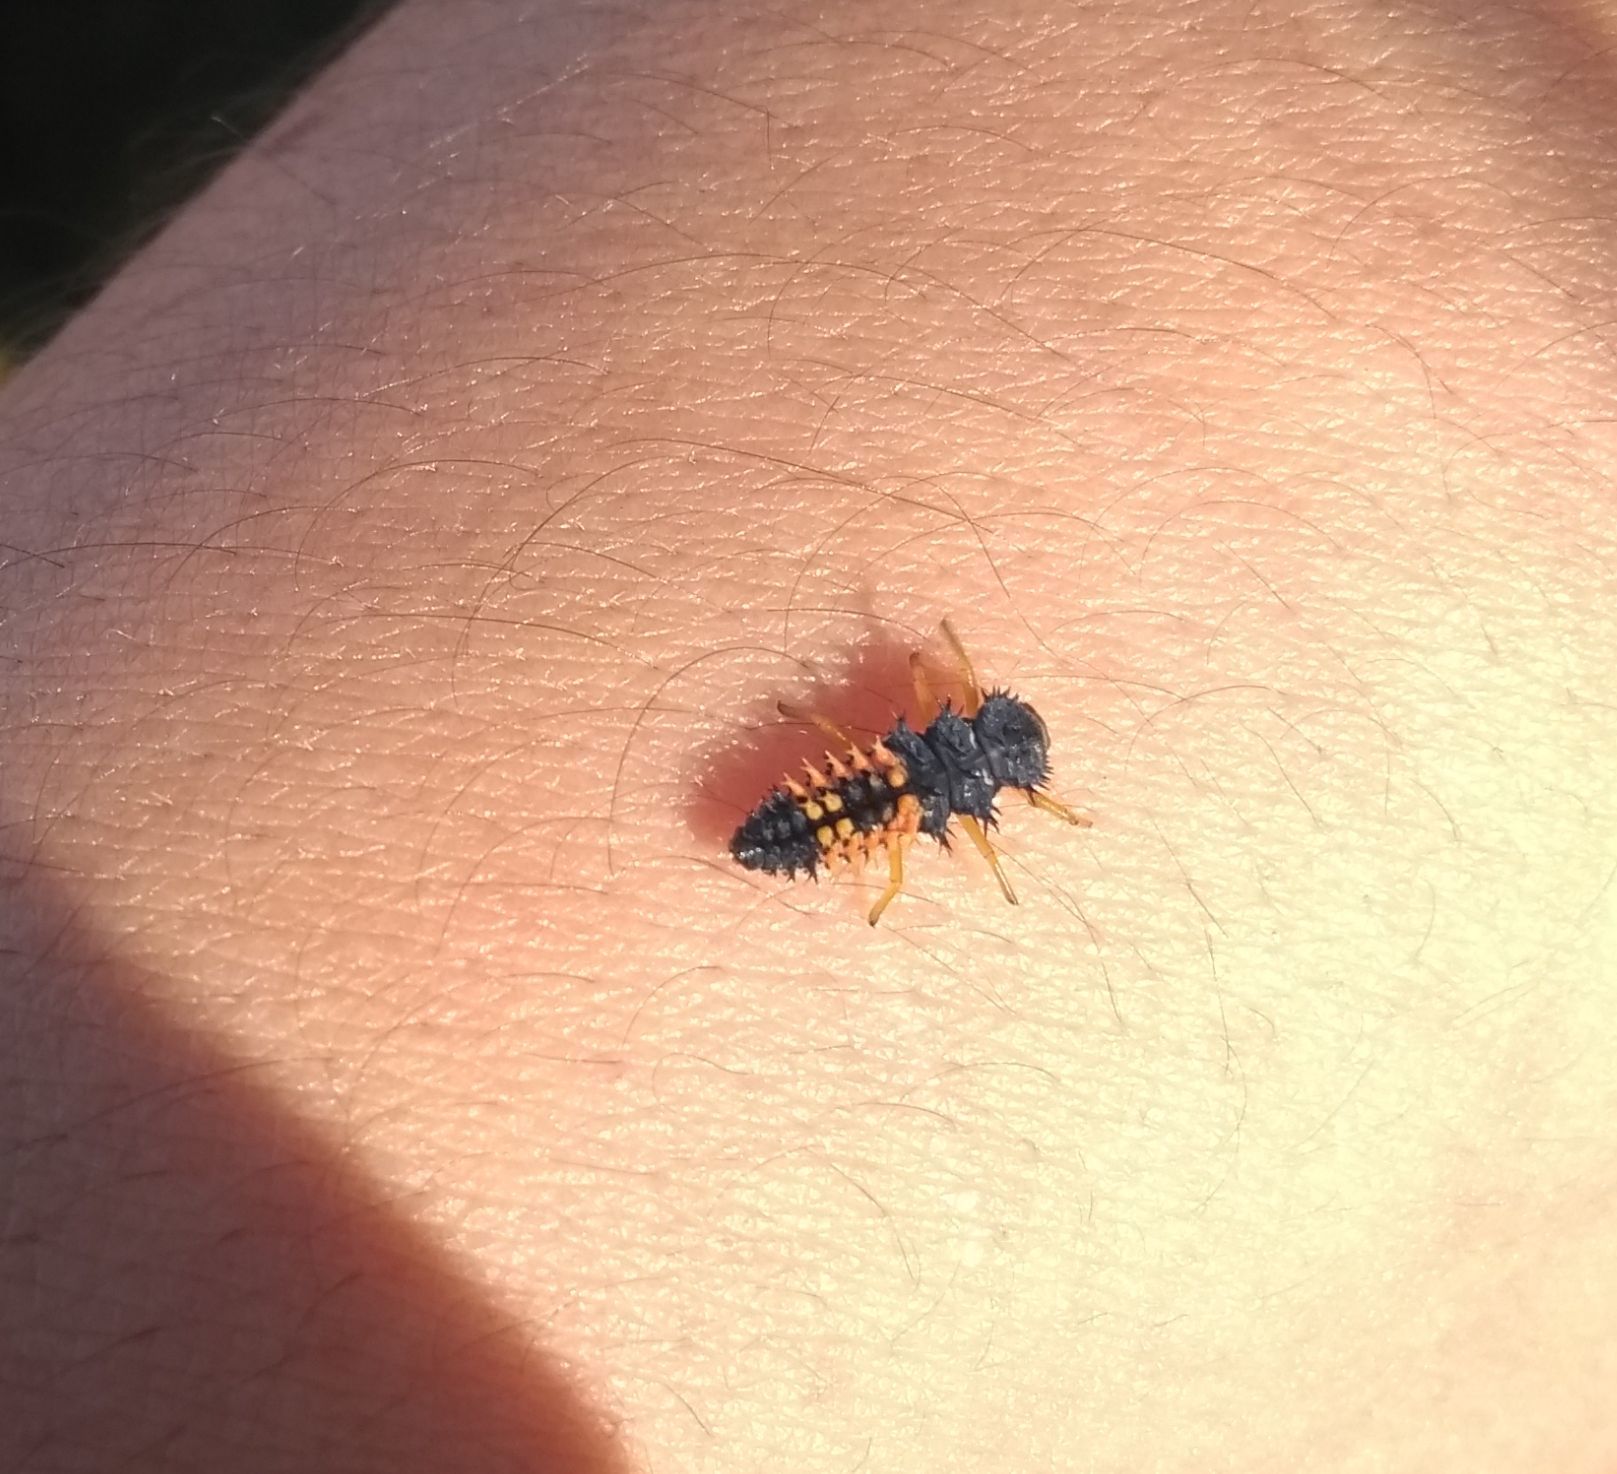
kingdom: Animalia
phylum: Arthropoda
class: Insecta
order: Coleoptera
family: Coccinellidae
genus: Harmonia
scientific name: Harmonia axyridis
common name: Harlequin ladybird
